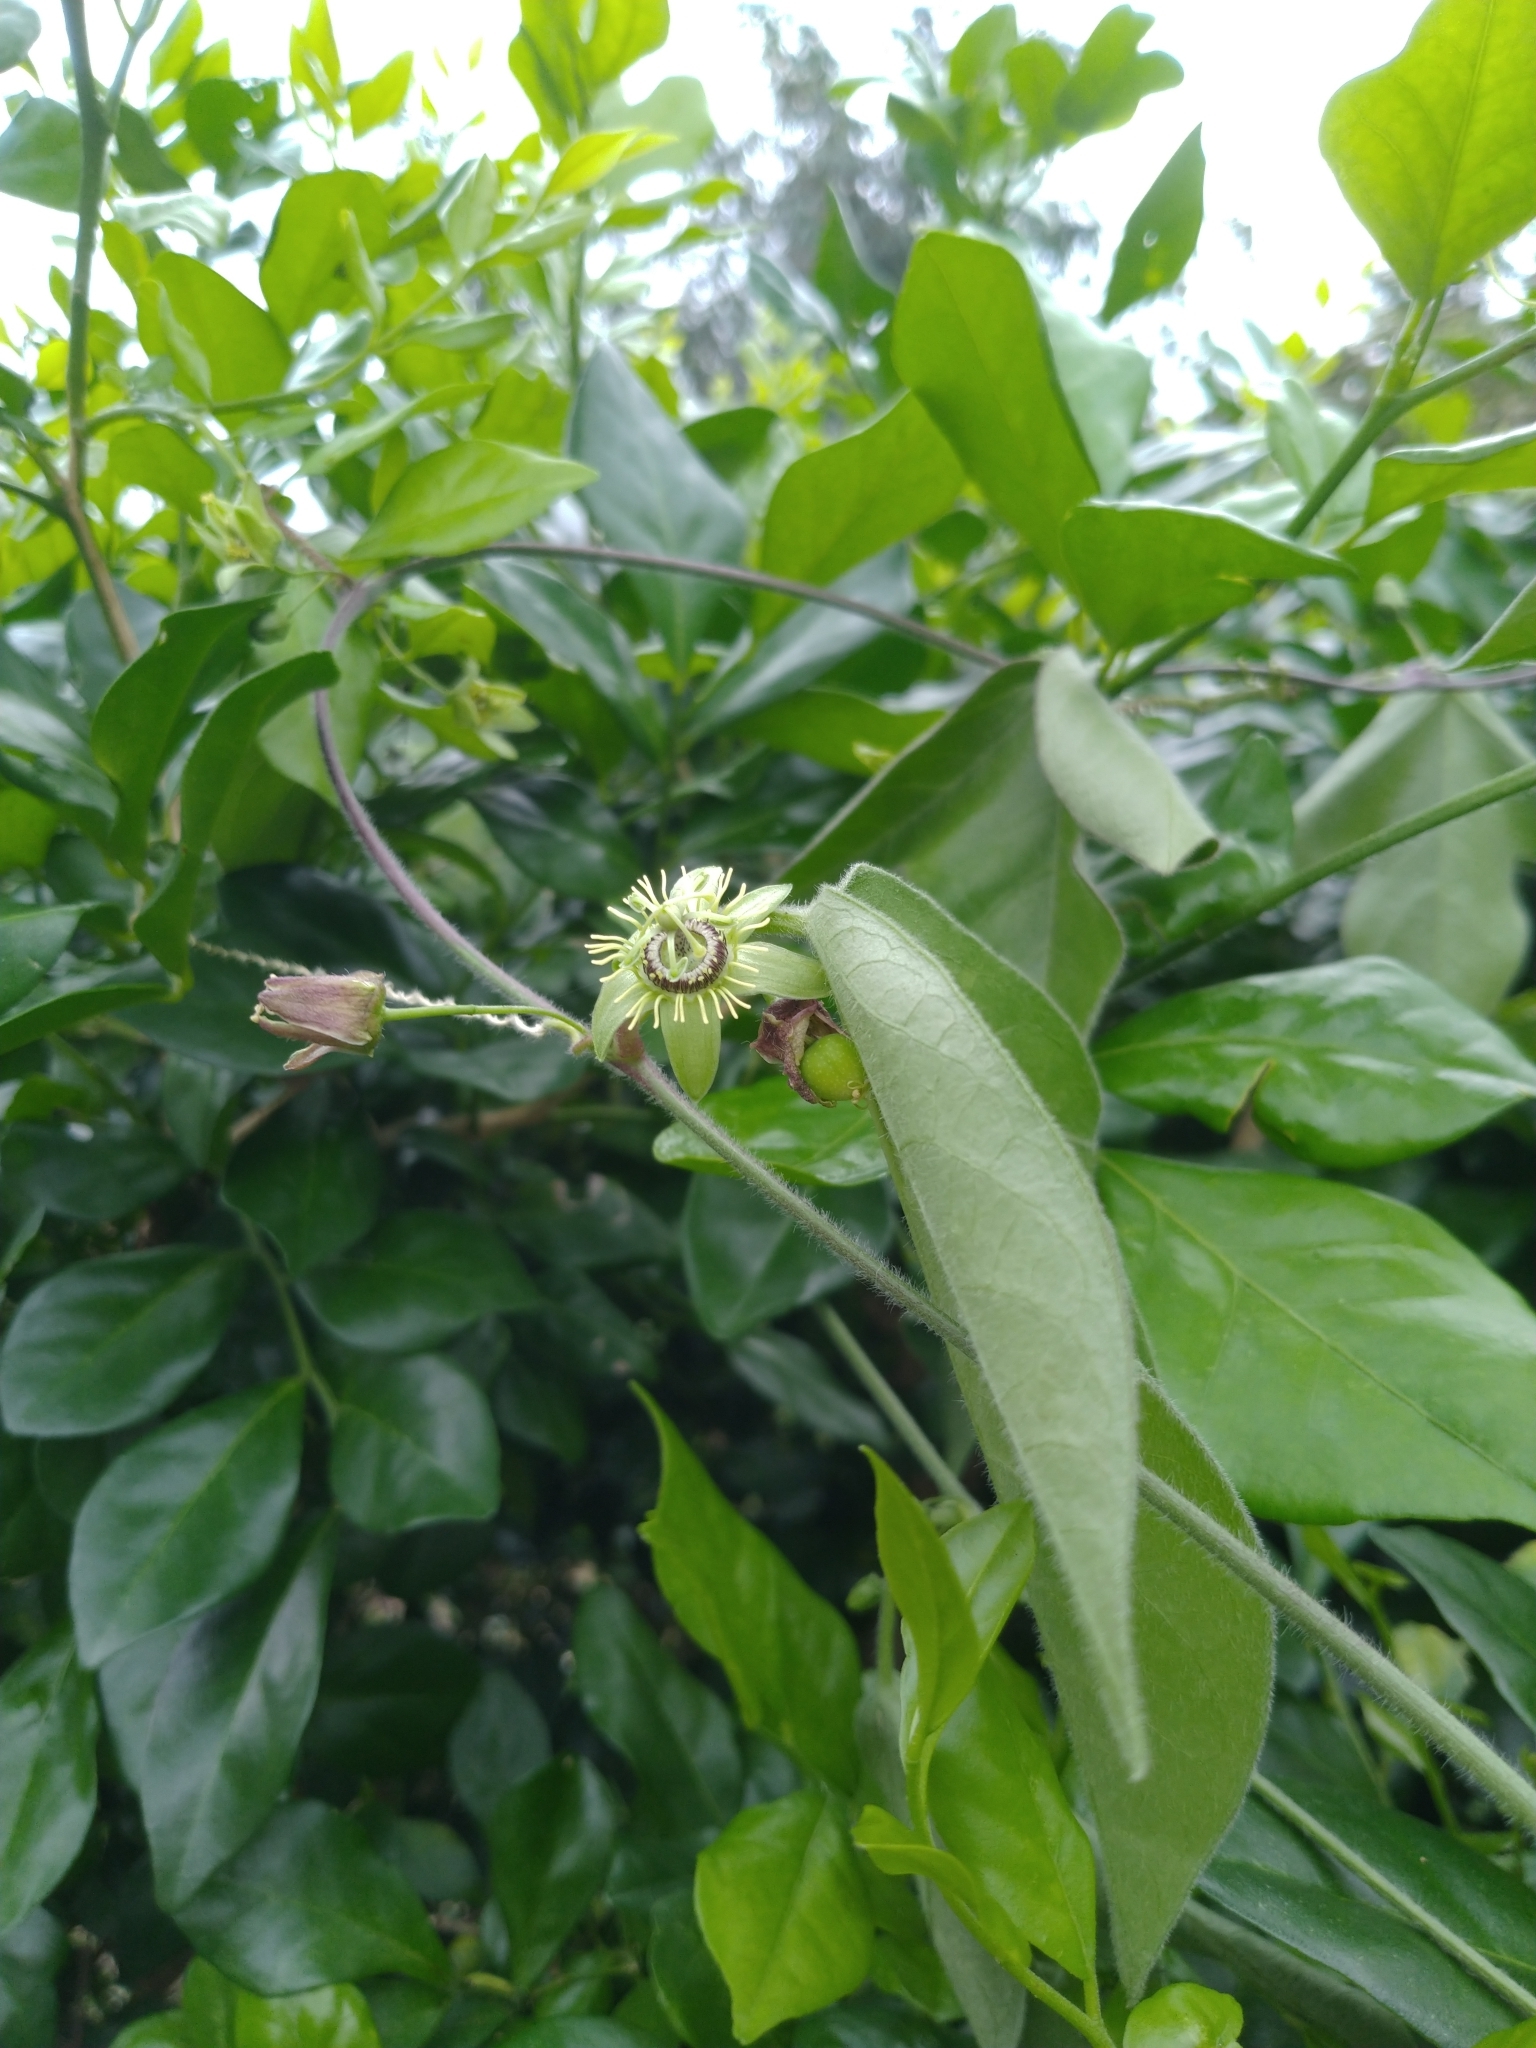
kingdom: Plantae
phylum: Tracheophyta
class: Magnoliopsida
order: Malpighiales
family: Passifloraceae
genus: Passiflora
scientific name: Passiflora suberosa
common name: Wild passionfruit
